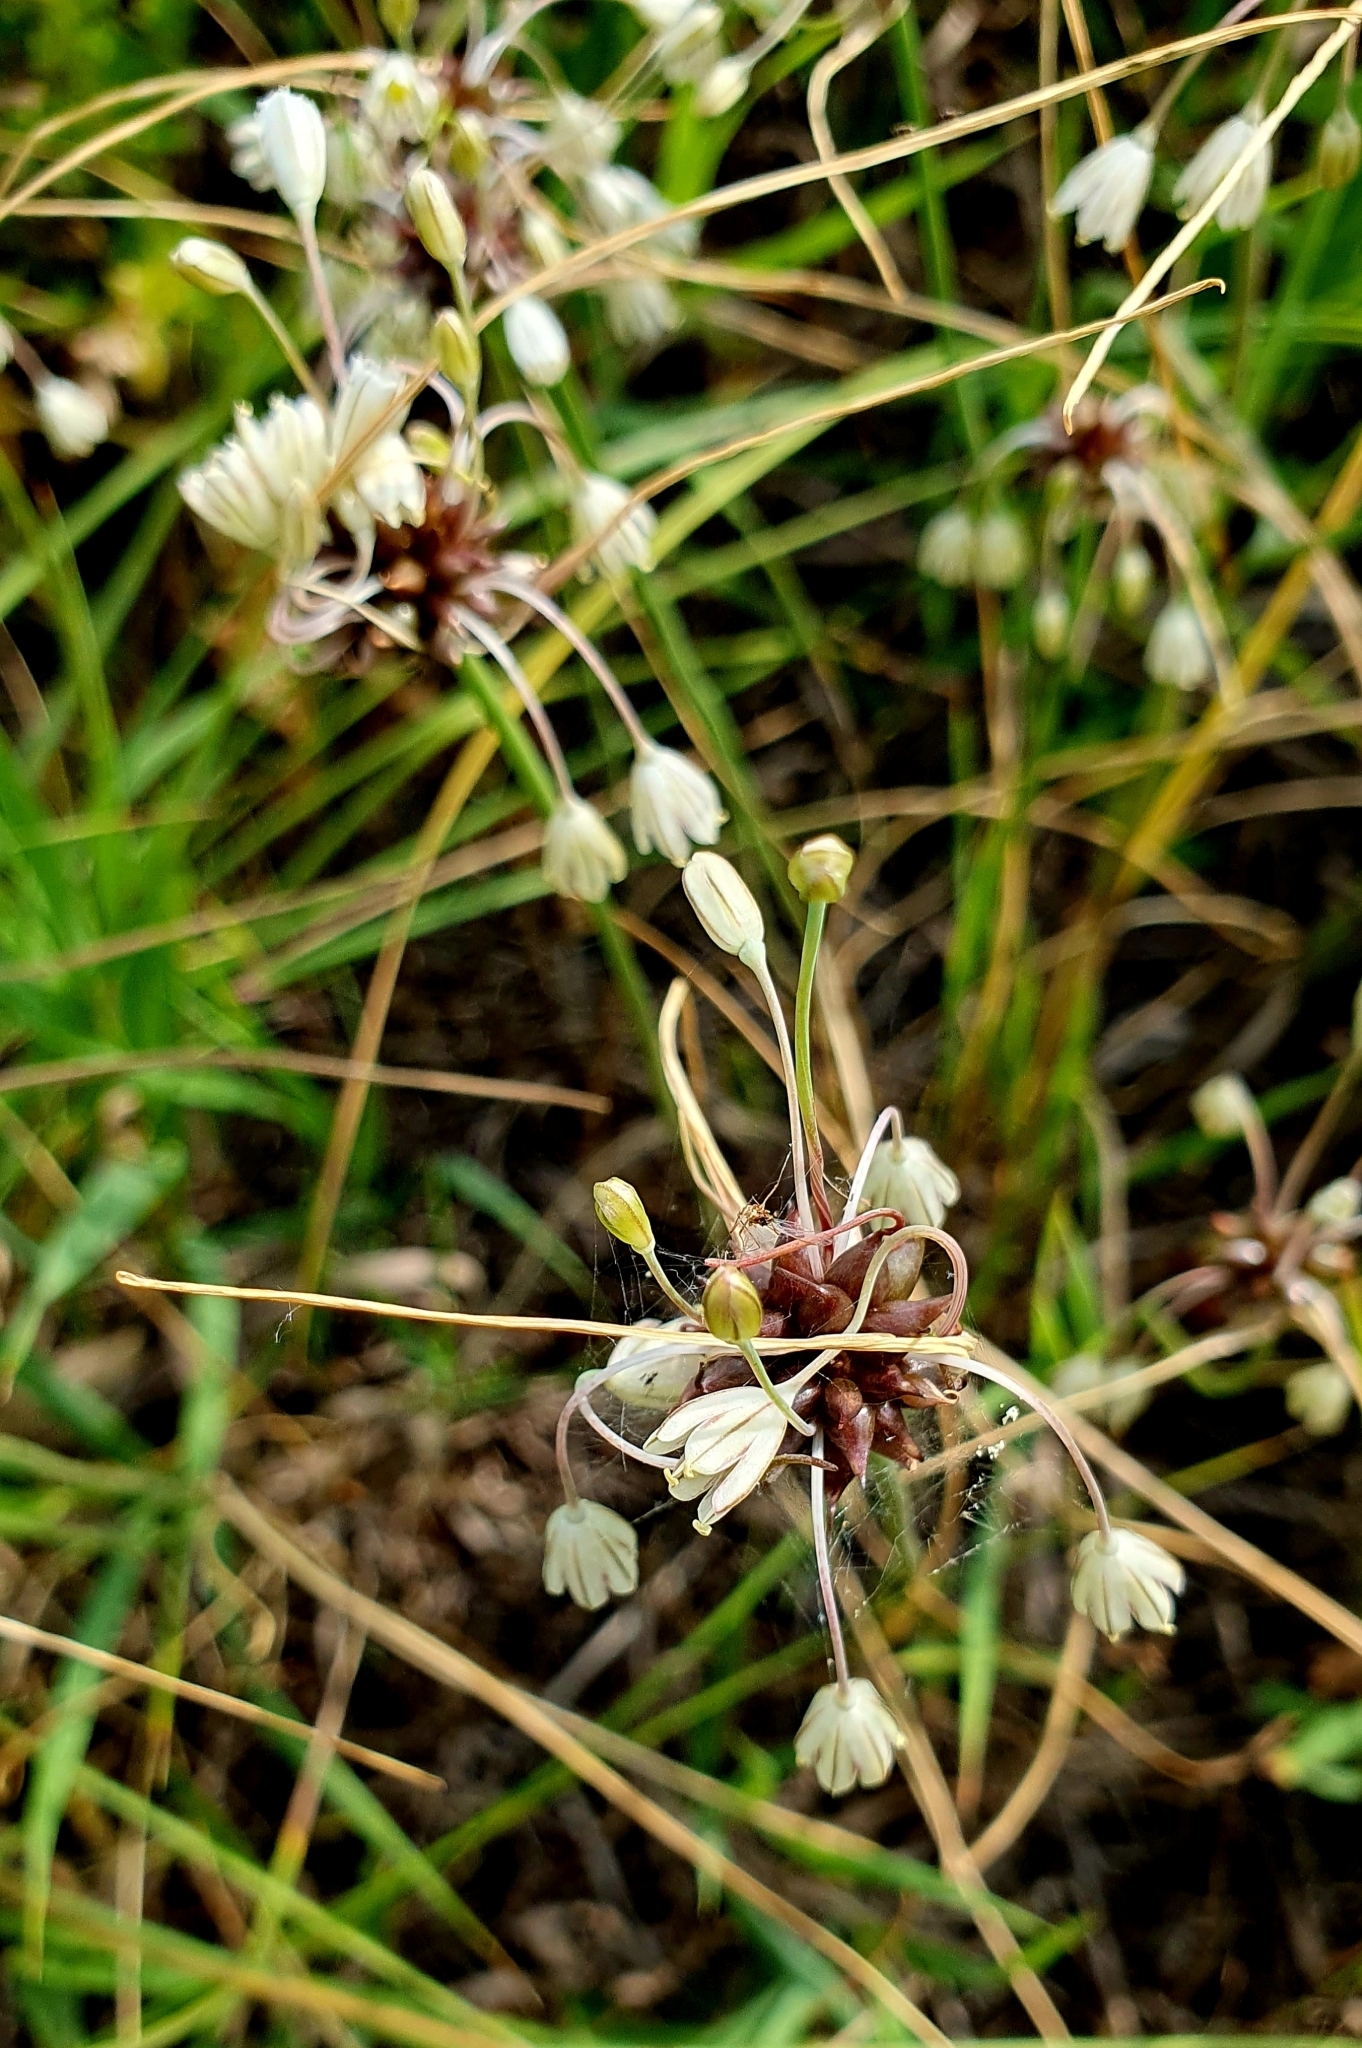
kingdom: Plantae
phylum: Tracheophyta
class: Liliopsida
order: Asparagales
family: Amaryllidaceae
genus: Allium
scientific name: Allium oleraceum
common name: Field garlic
